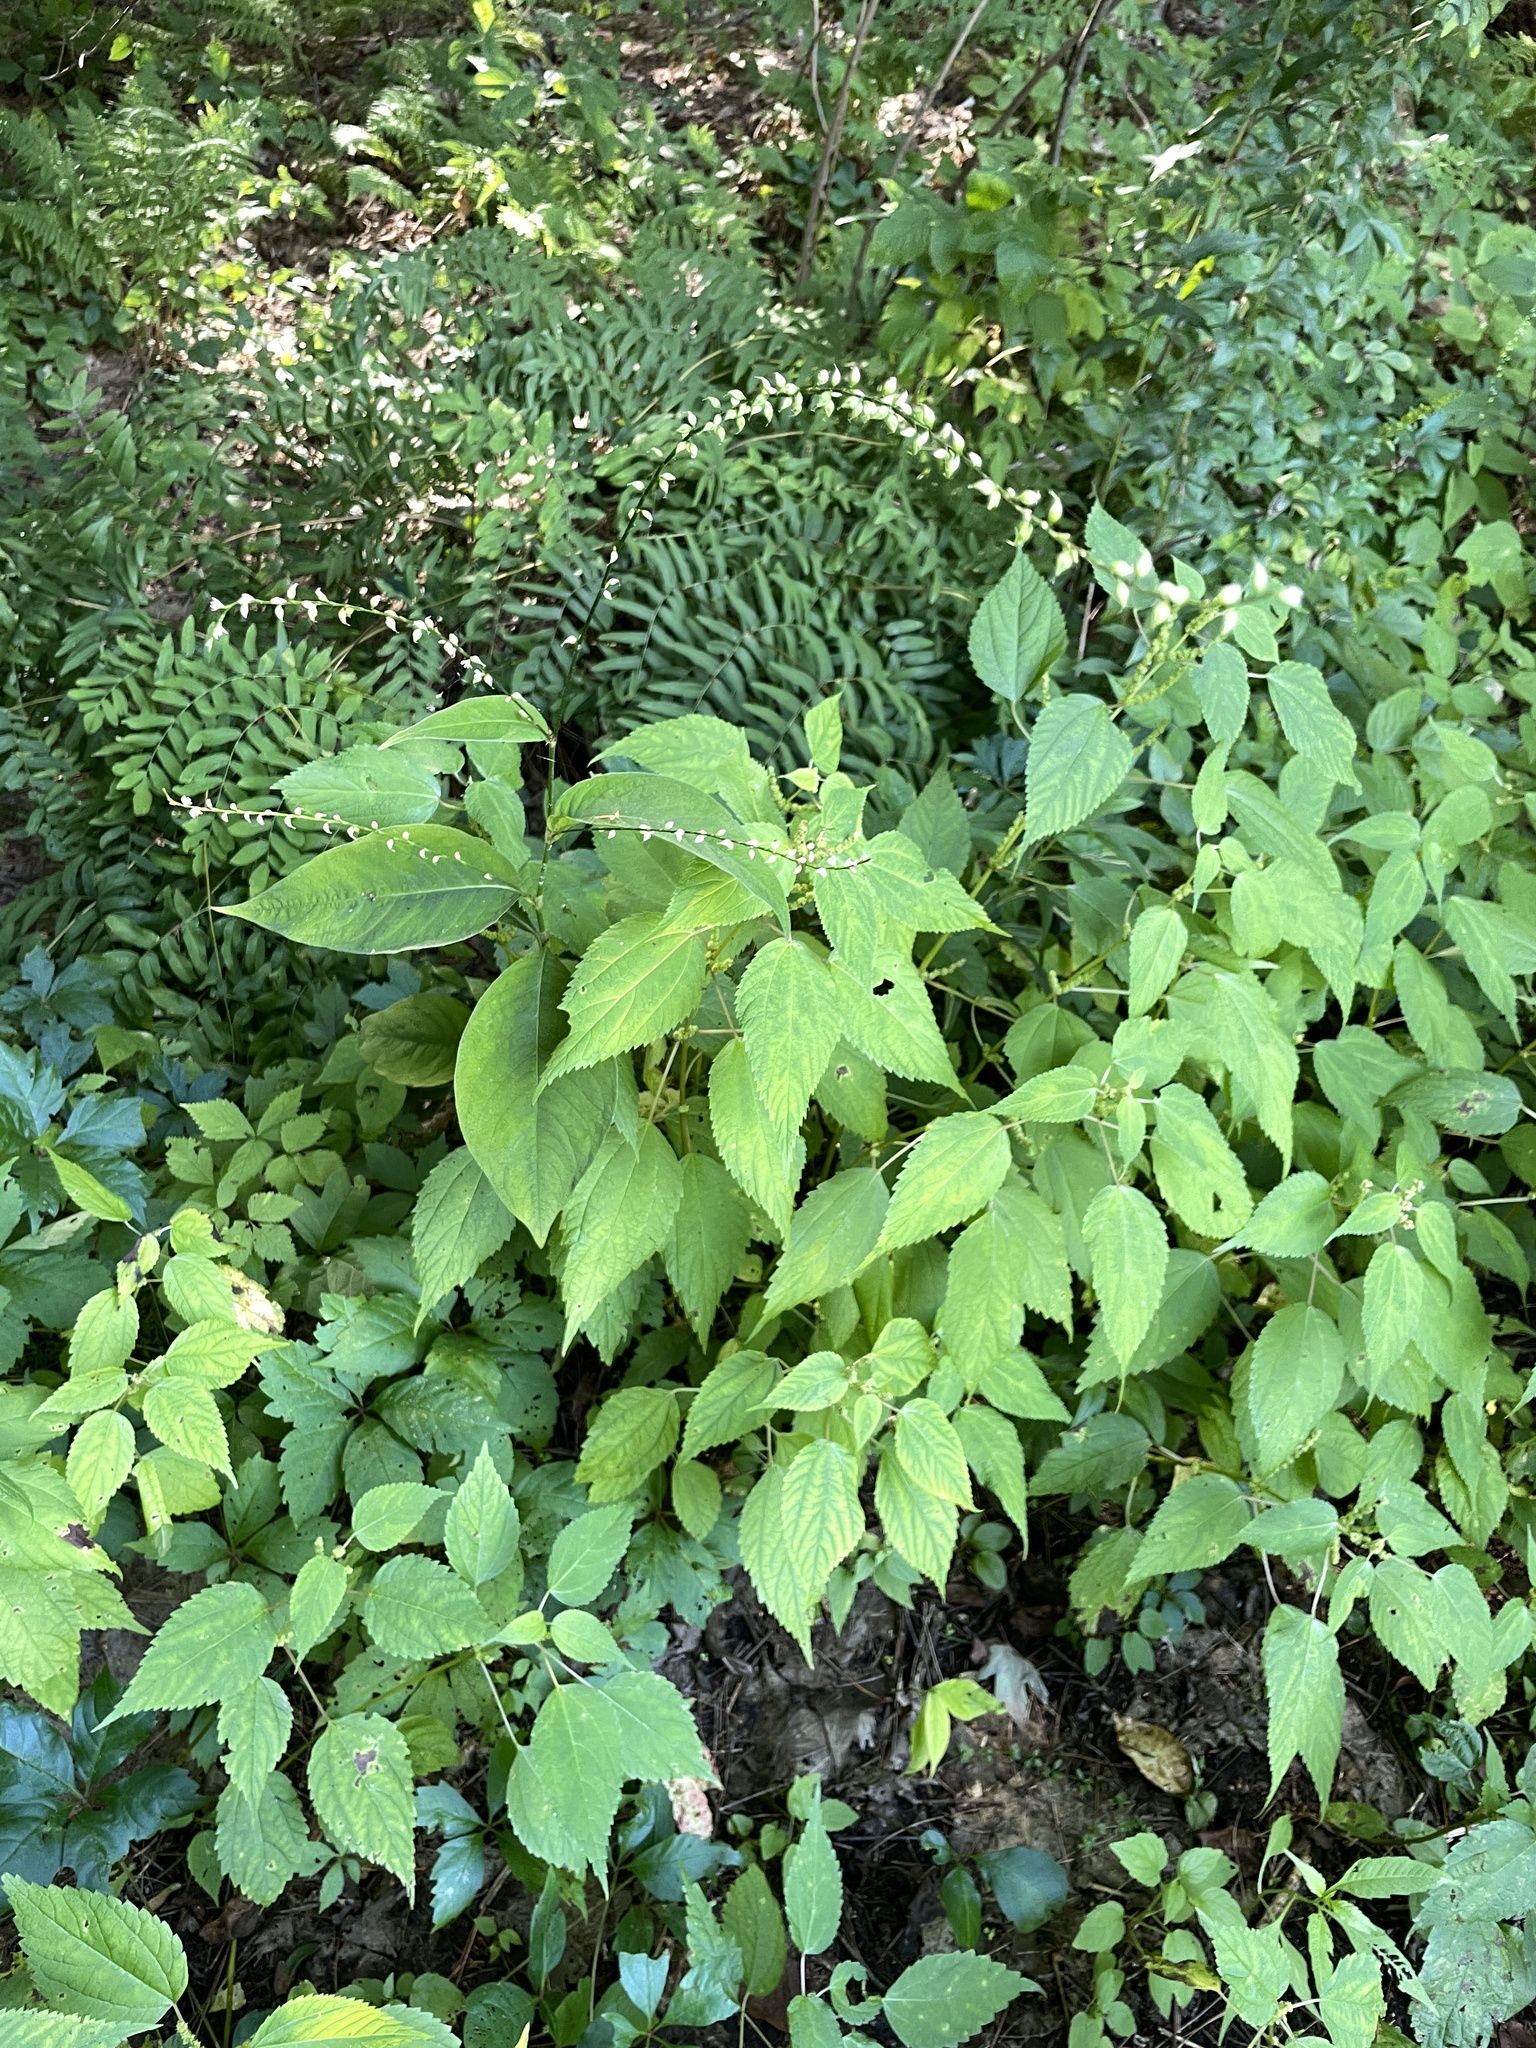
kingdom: Plantae
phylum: Tracheophyta
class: Magnoliopsida
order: Caryophyllales
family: Polygonaceae
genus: Persicaria
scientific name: Persicaria virginiana
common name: Jumpseed
